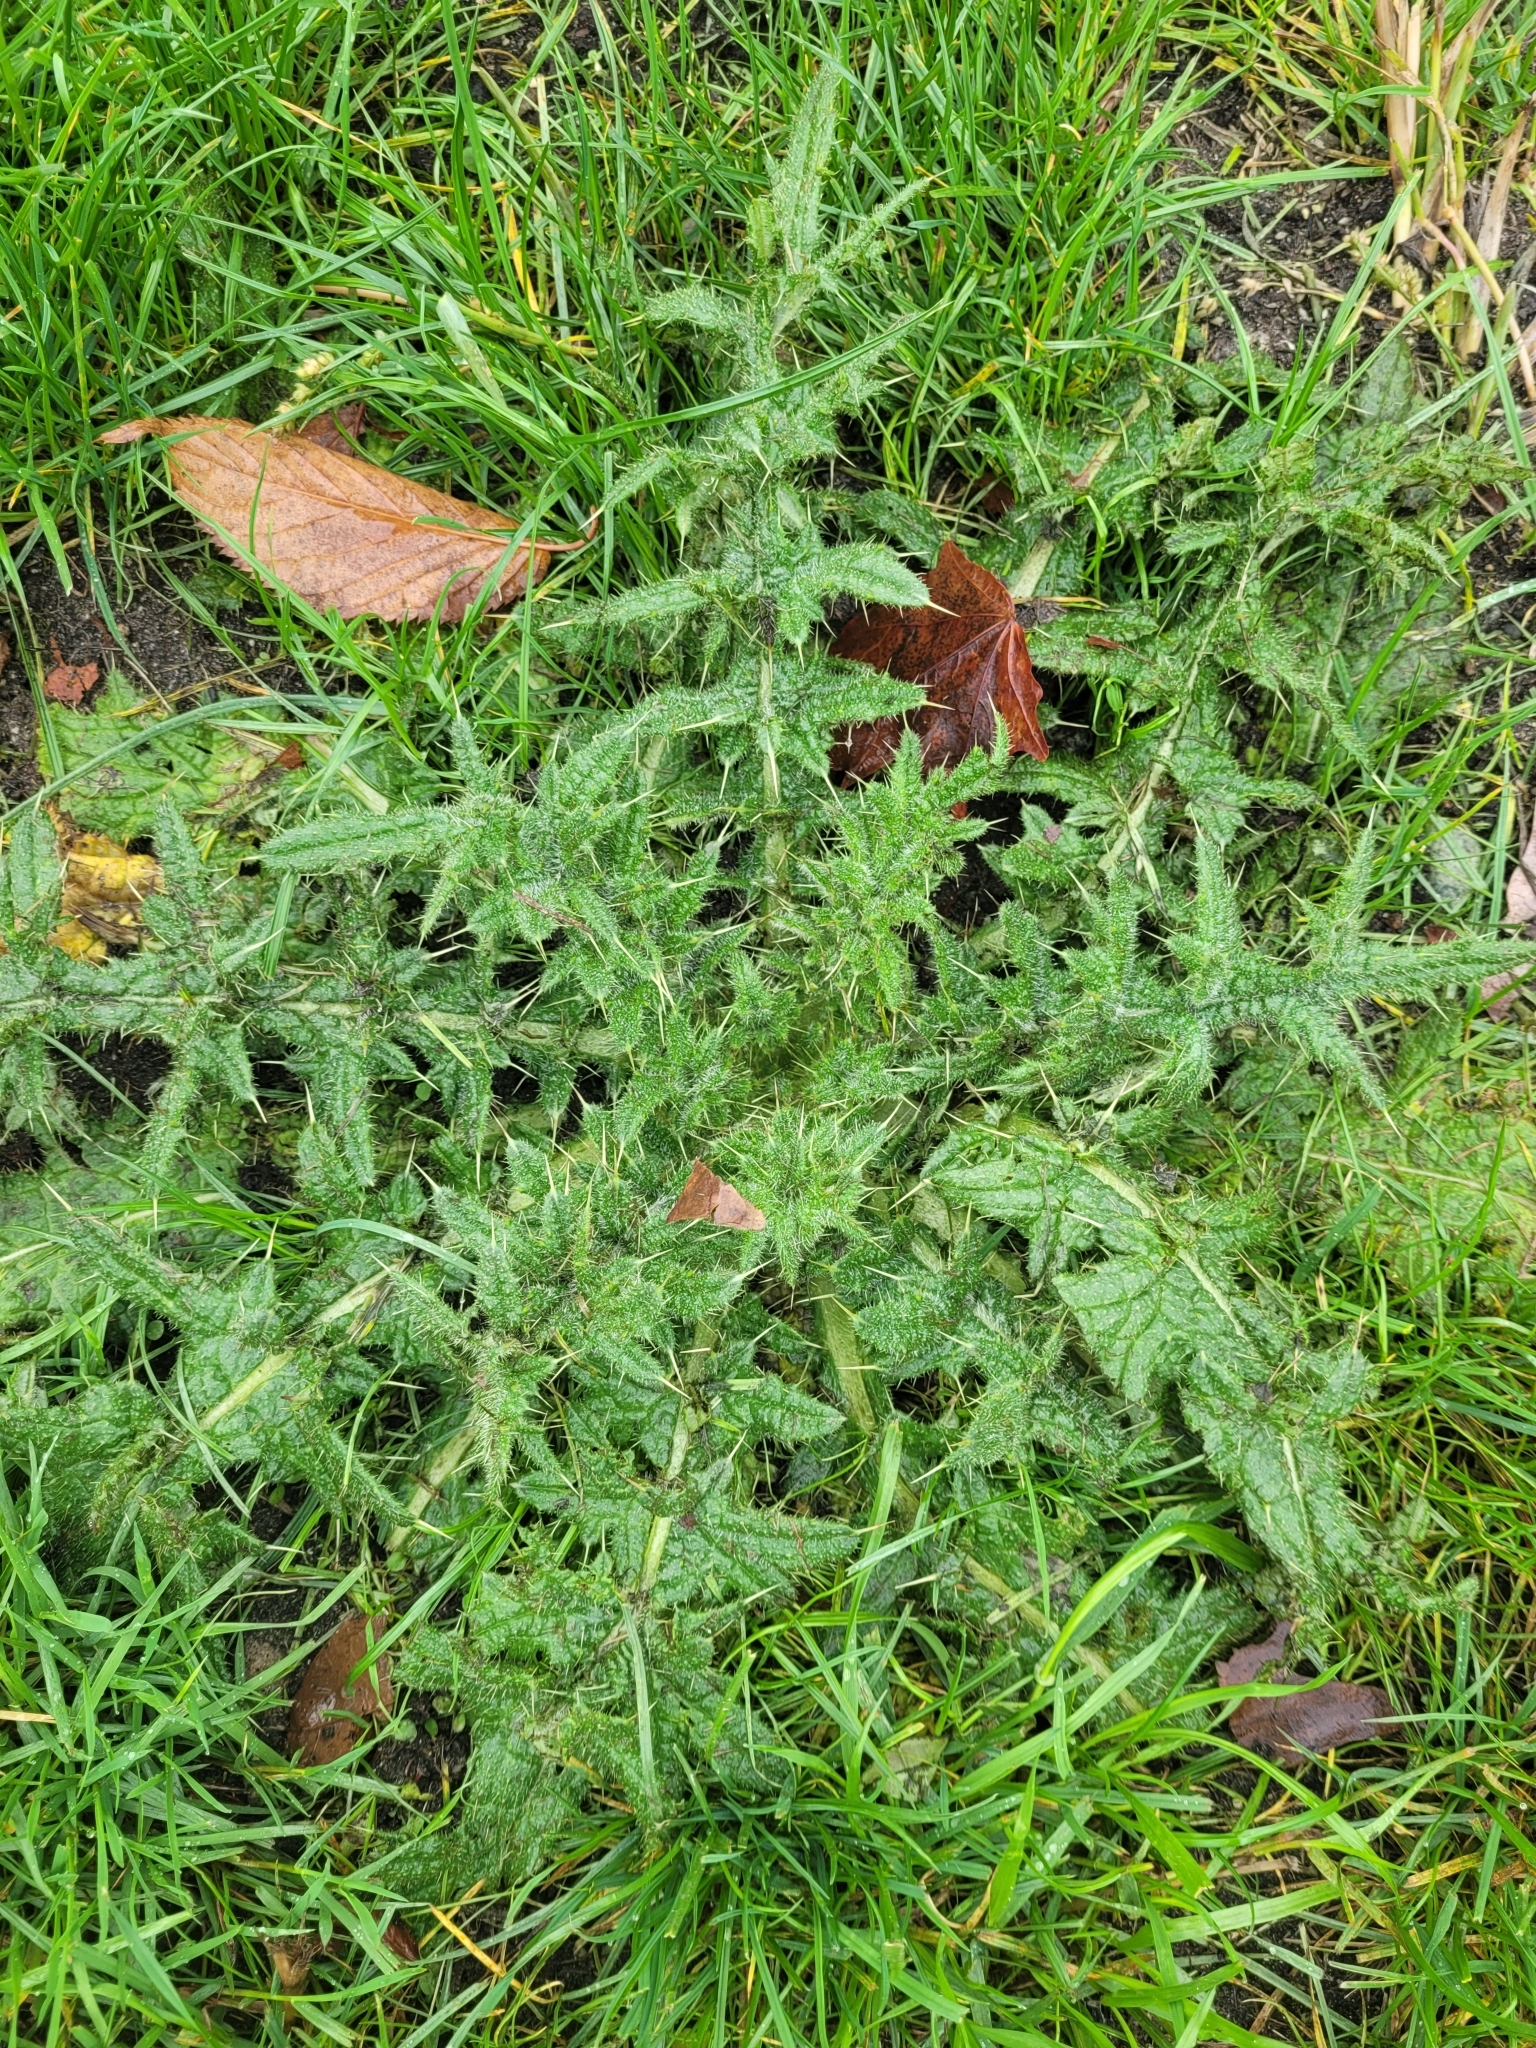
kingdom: Plantae
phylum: Tracheophyta
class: Magnoliopsida
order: Asterales
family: Asteraceae
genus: Cirsium
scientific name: Cirsium vulgare
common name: Bull thistle
